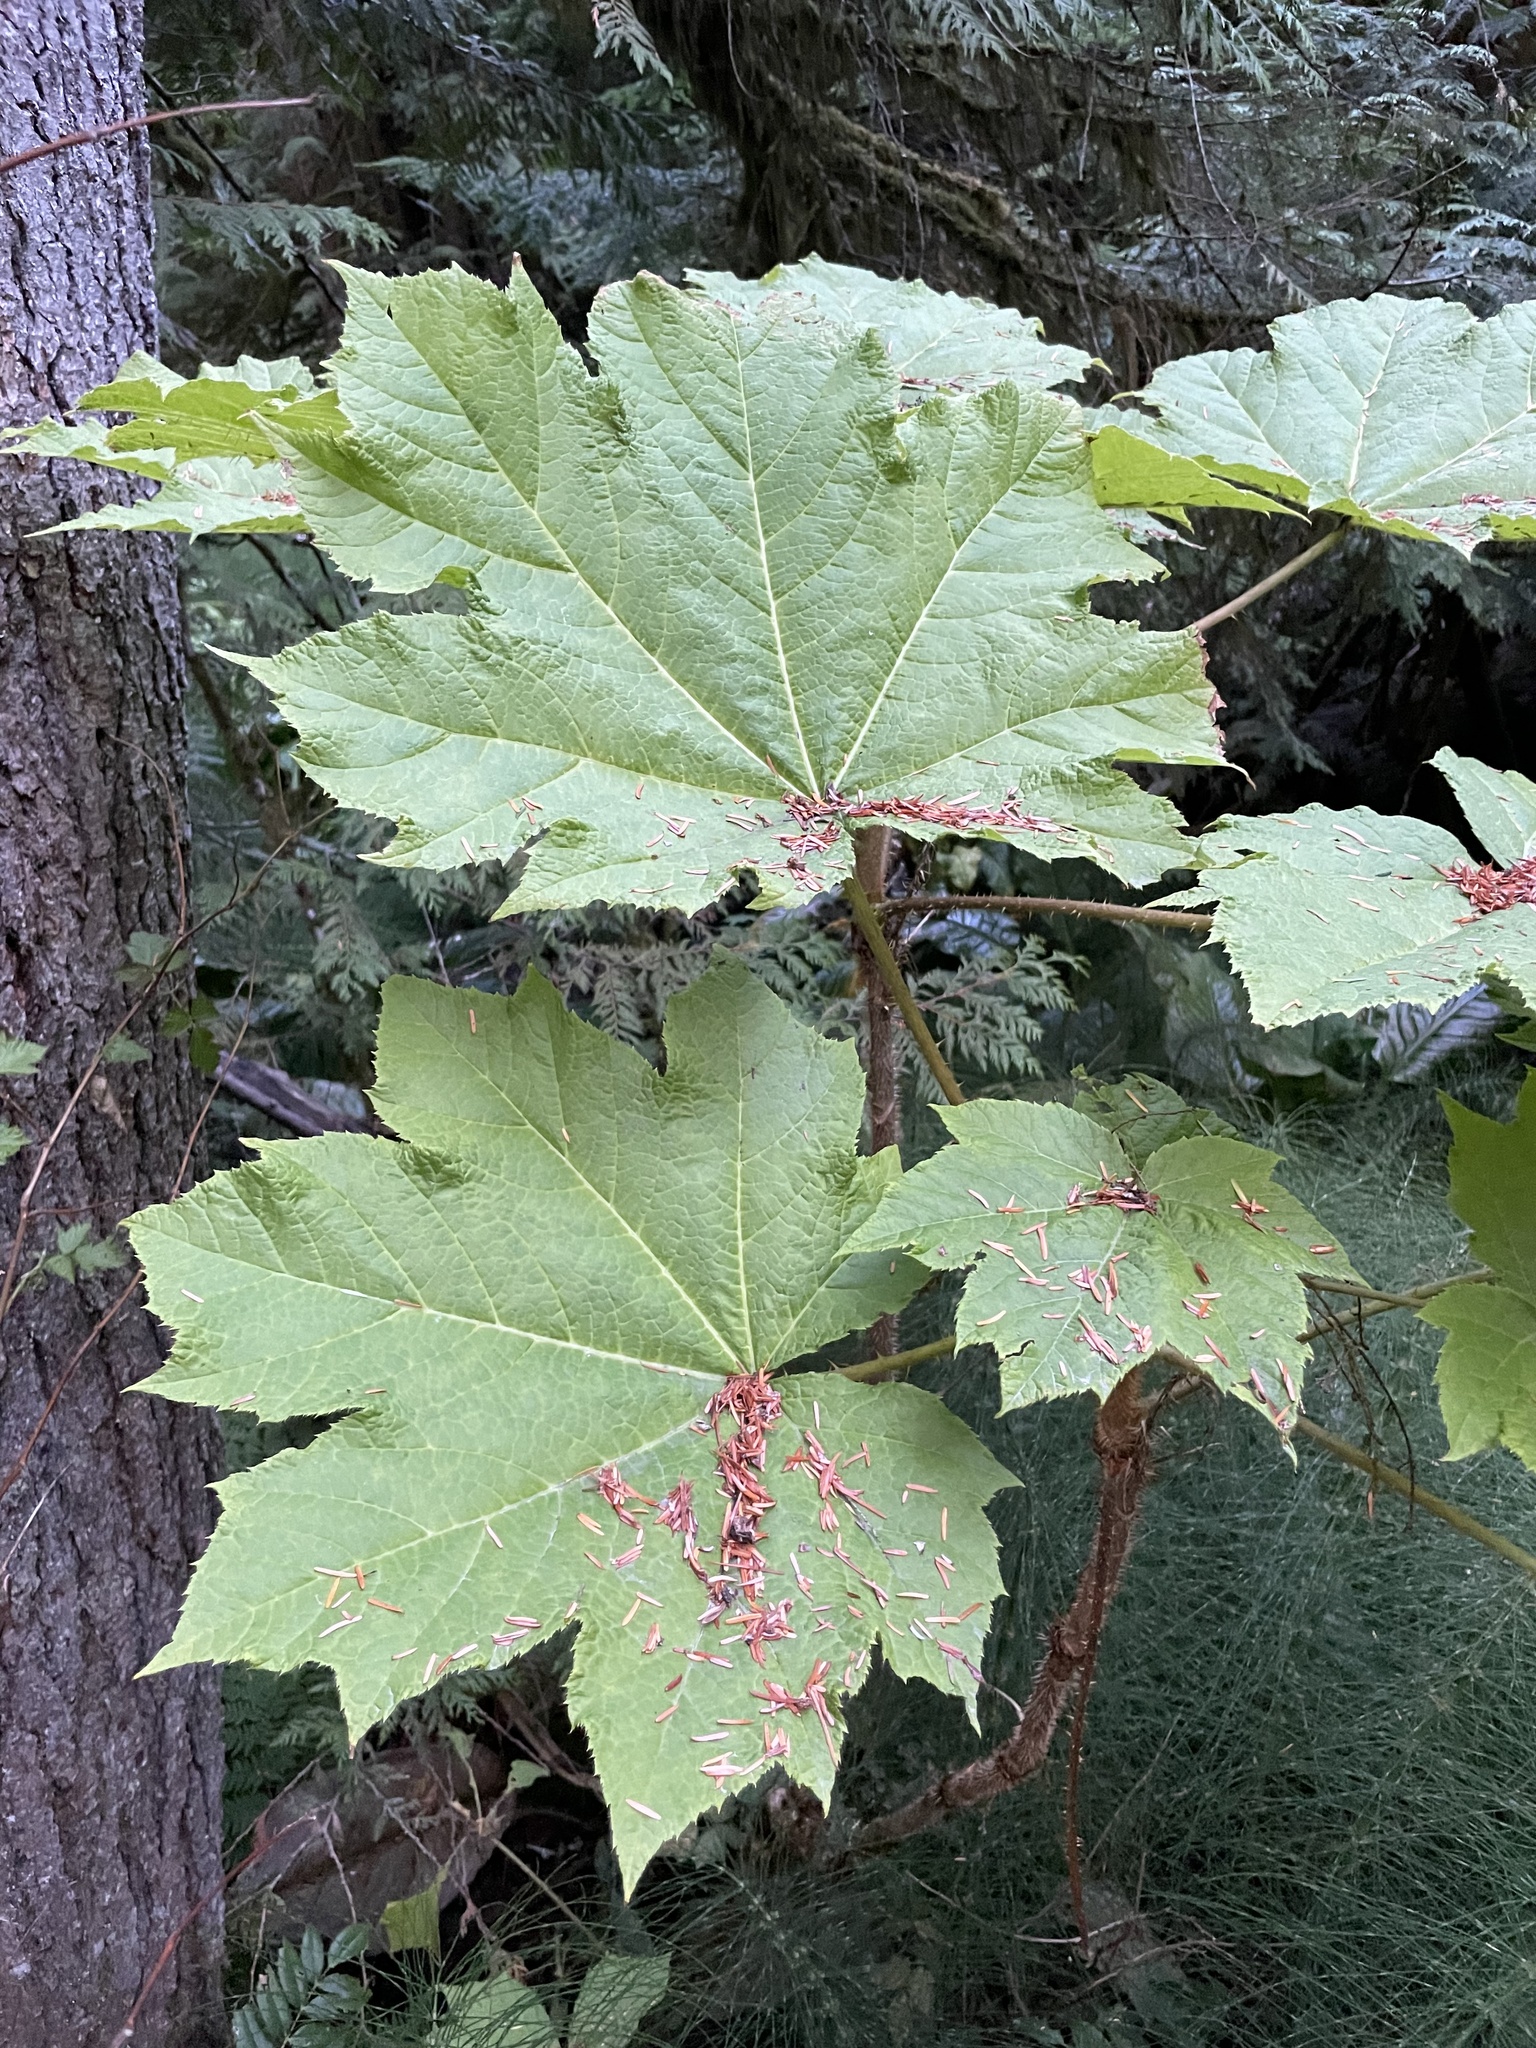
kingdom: Plantae
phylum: Tracheophyta
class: Magnoliopsida
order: Apiales
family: Araliaceae
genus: Oplopanax
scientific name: Oplopanax horridus
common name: Devil's walking-stick
